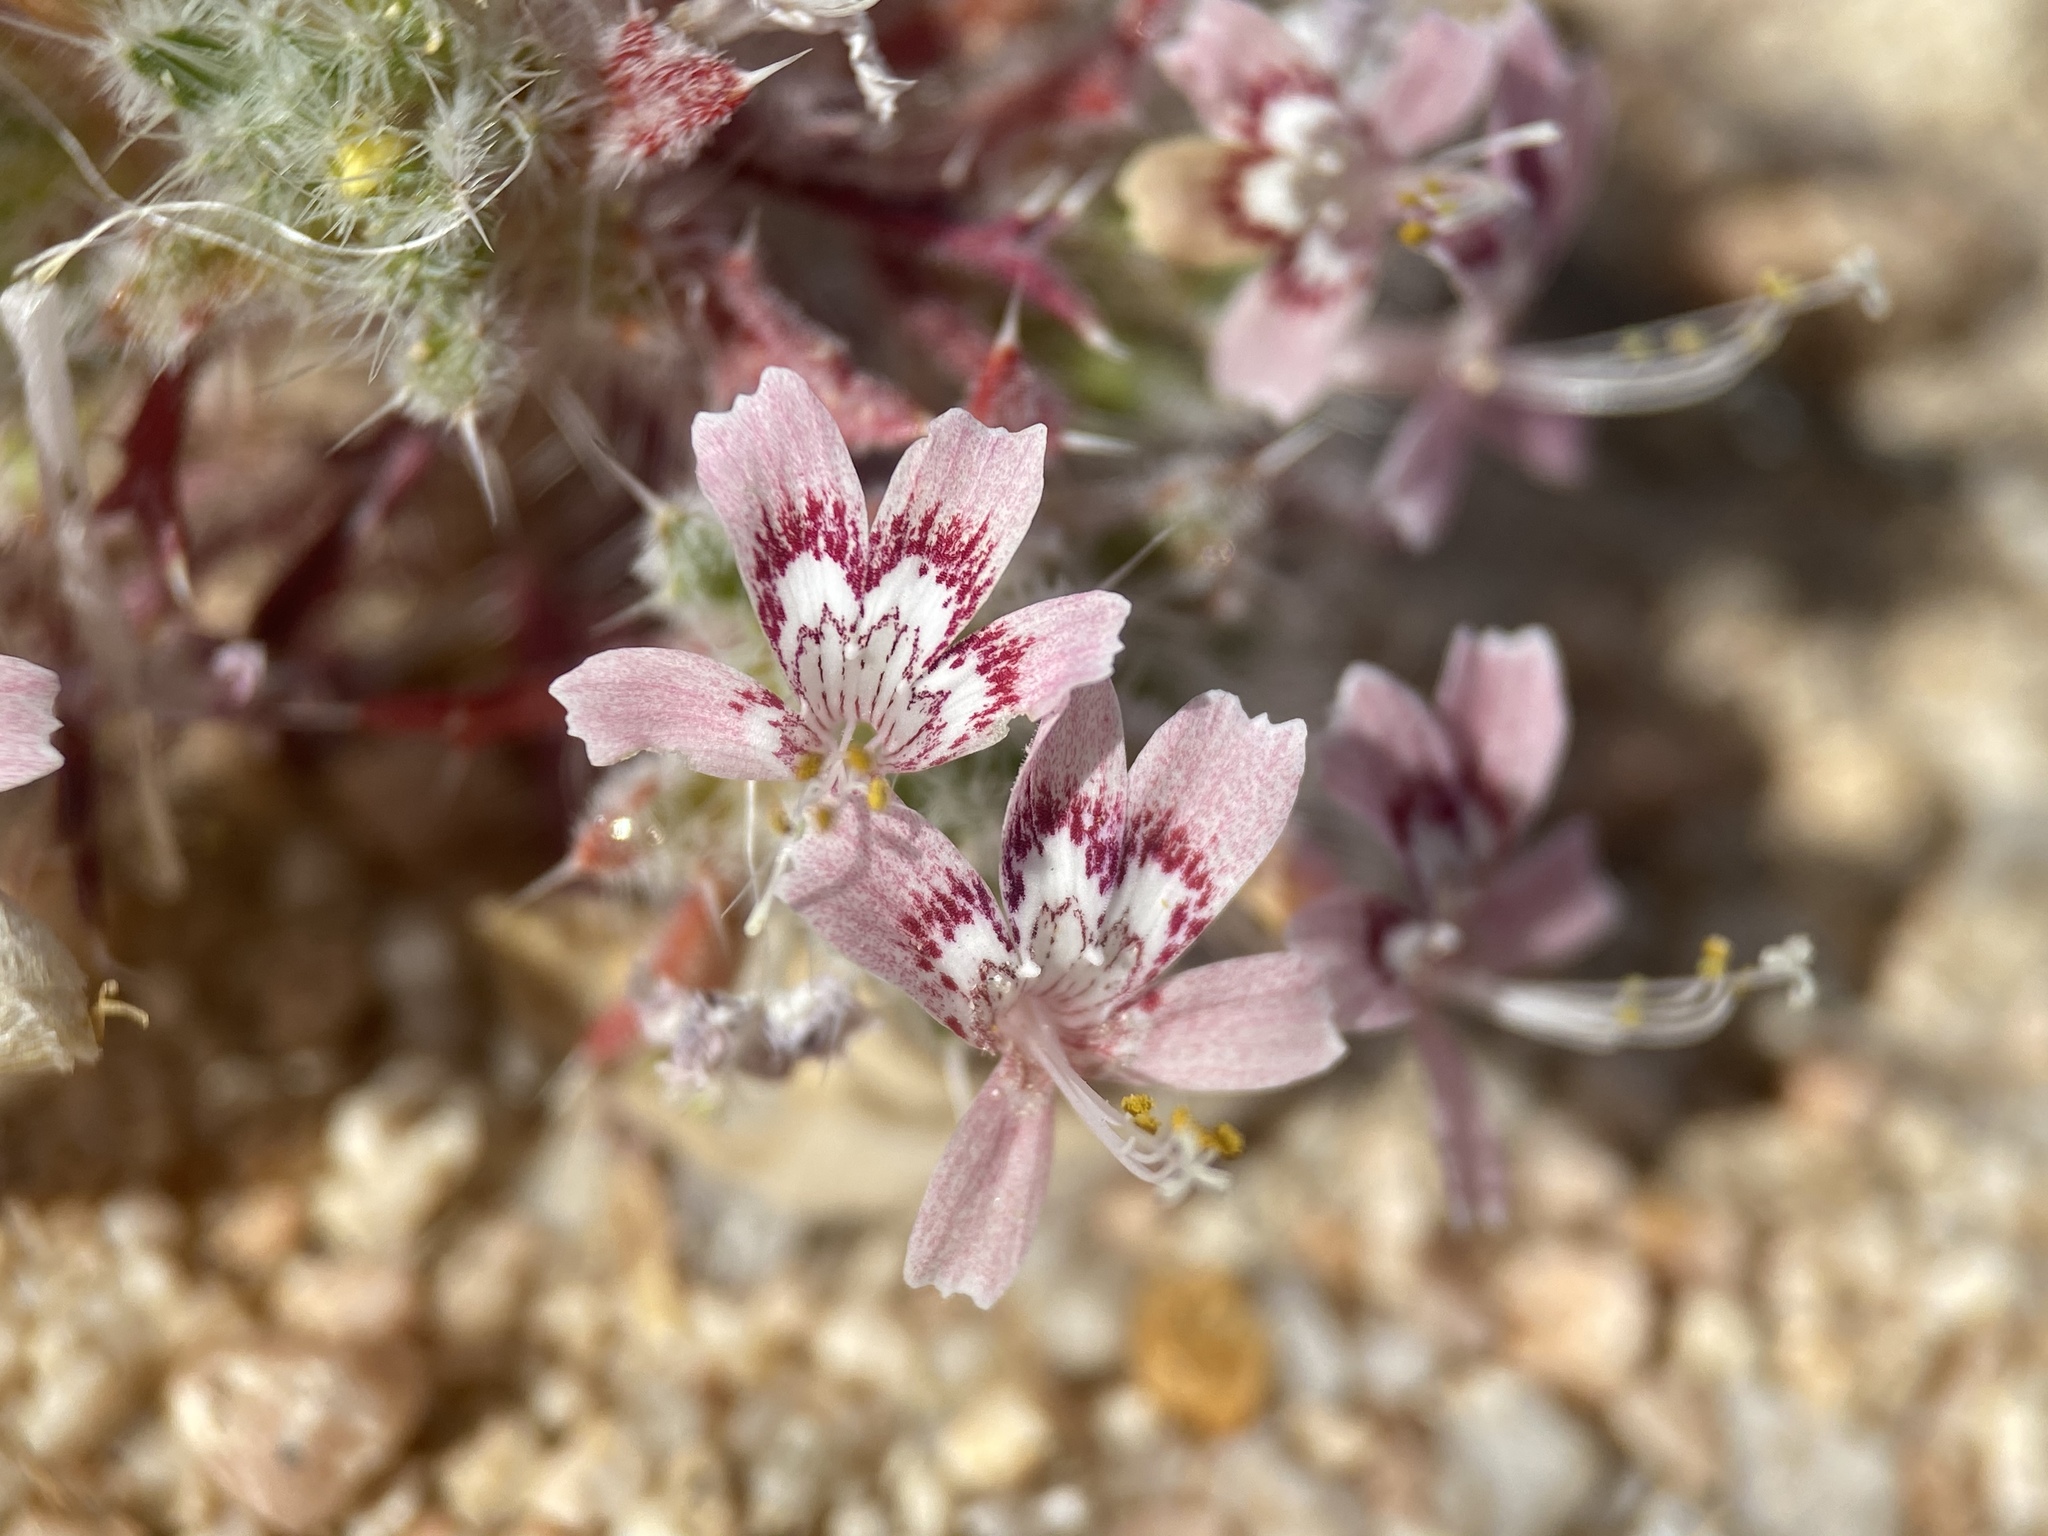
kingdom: Plantae
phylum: Tracheophyta
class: Magnoliopsida
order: Ericales
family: Polemoniaceae
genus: Loeseliastrum
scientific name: Loeseliastrum matthewsii
